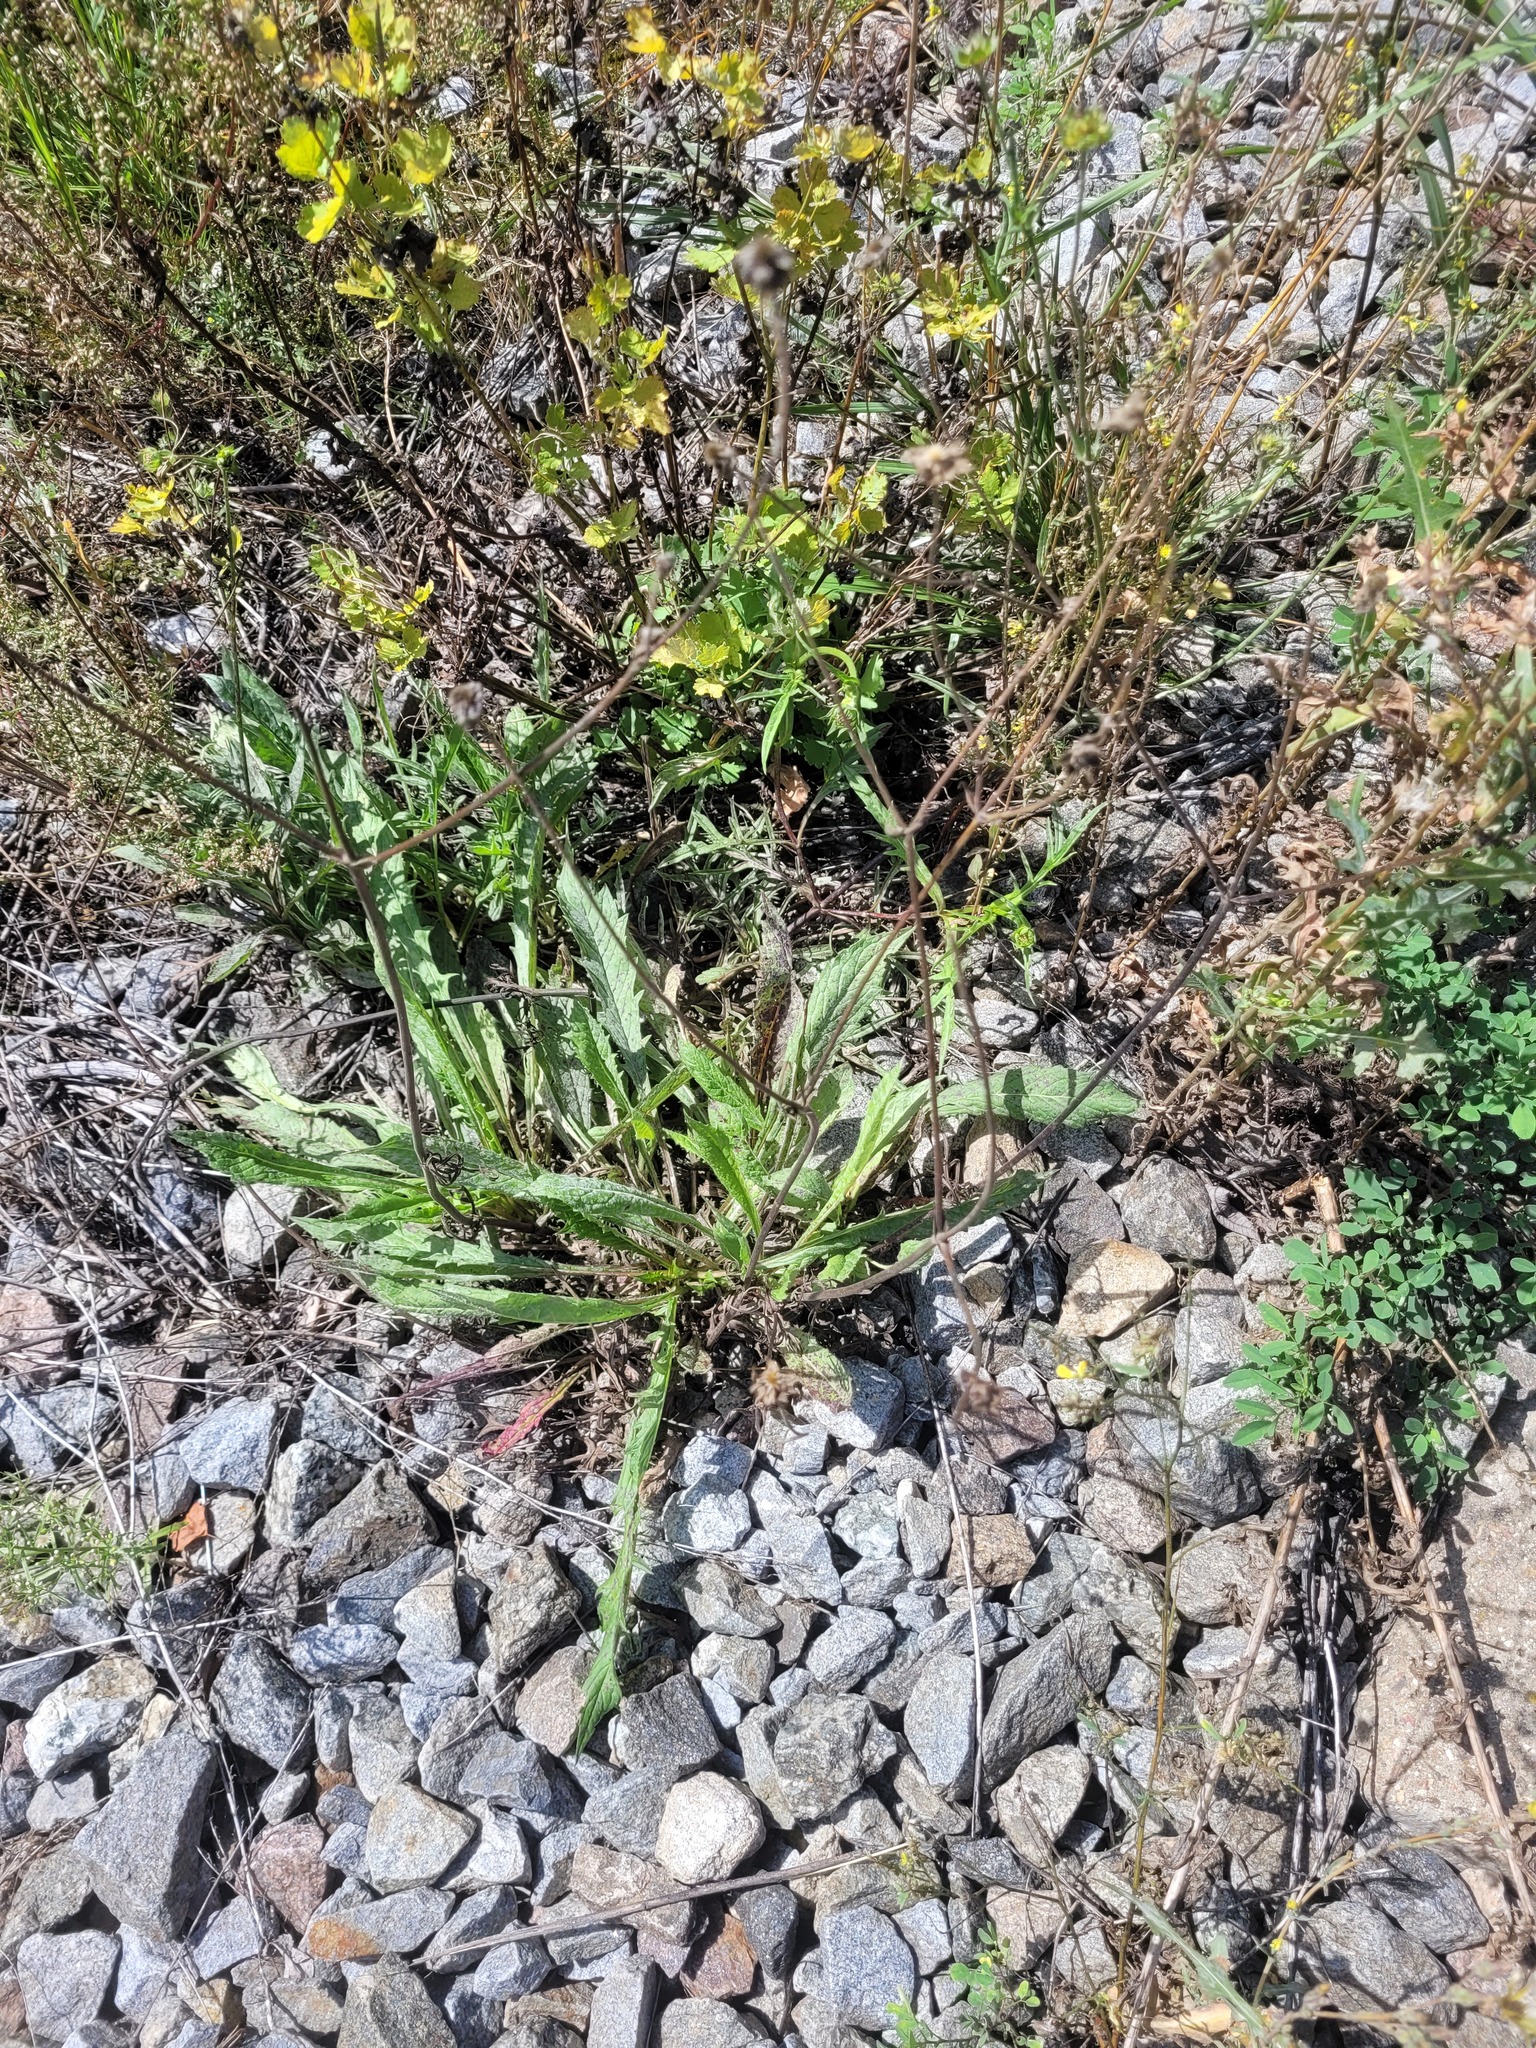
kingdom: Plantae
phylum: Tracheophyta
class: Magnoliopsida
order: Dipsacales
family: Caprifoliaceae
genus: Knautia
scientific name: Knautia arvensis
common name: Field scabiosa
